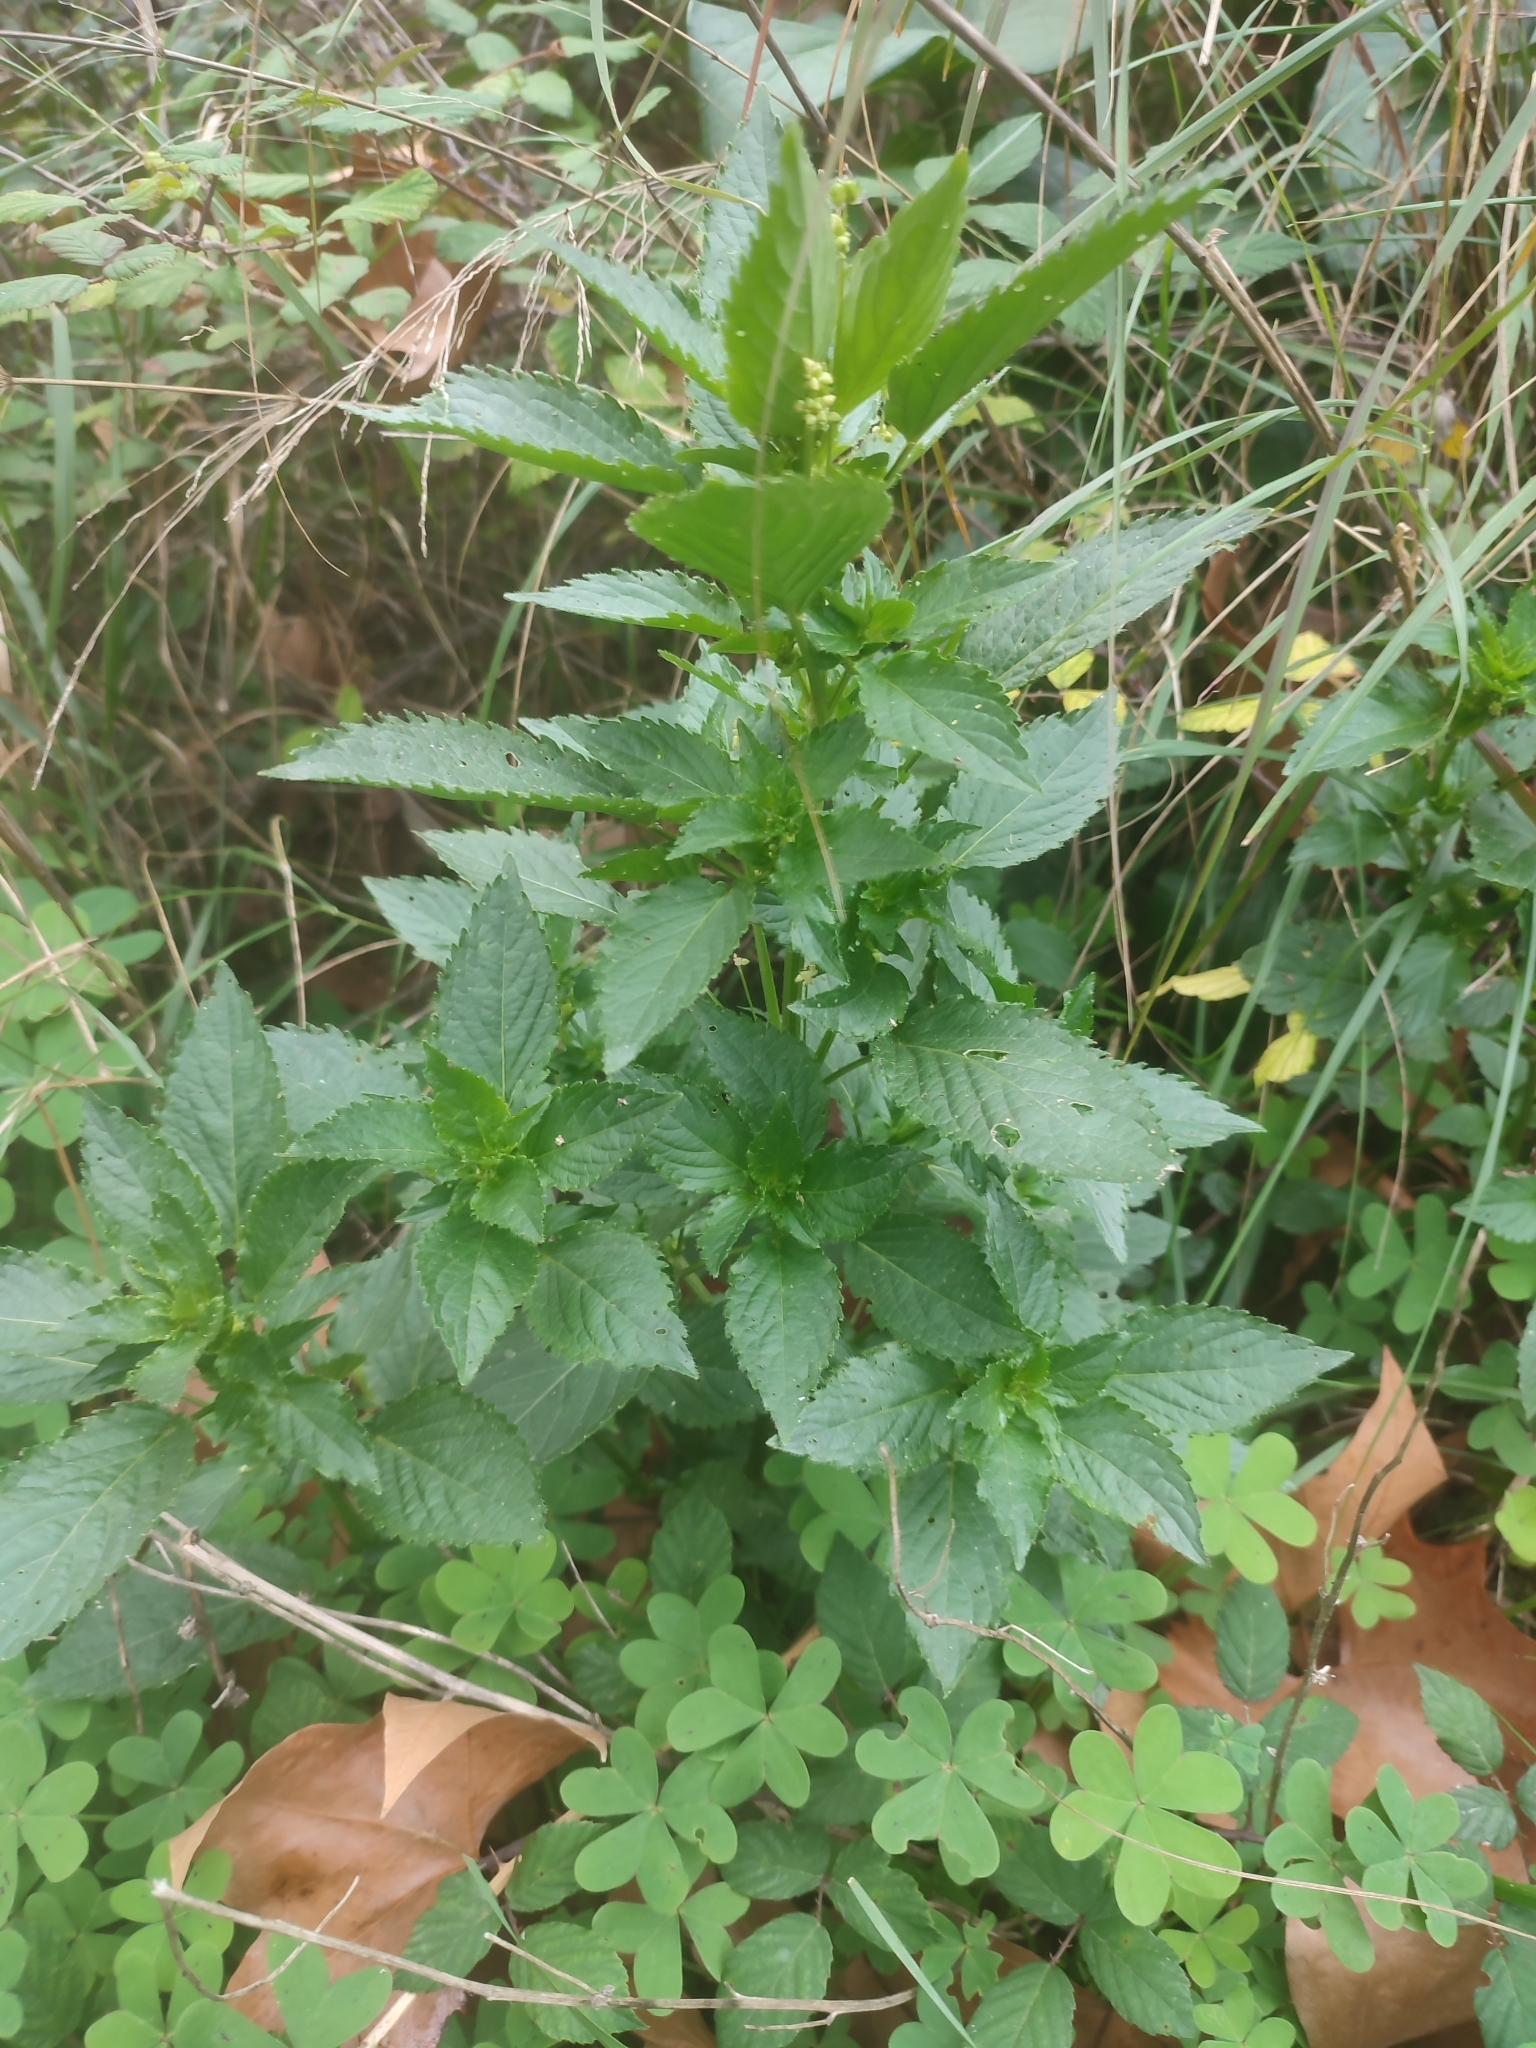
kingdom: Plantae
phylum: Tracheophyta
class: Magnoliopsida
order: Malpighiales
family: Euphorbiaceae
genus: Mercurialis
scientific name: Mercurialis annua
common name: Annual mercury
